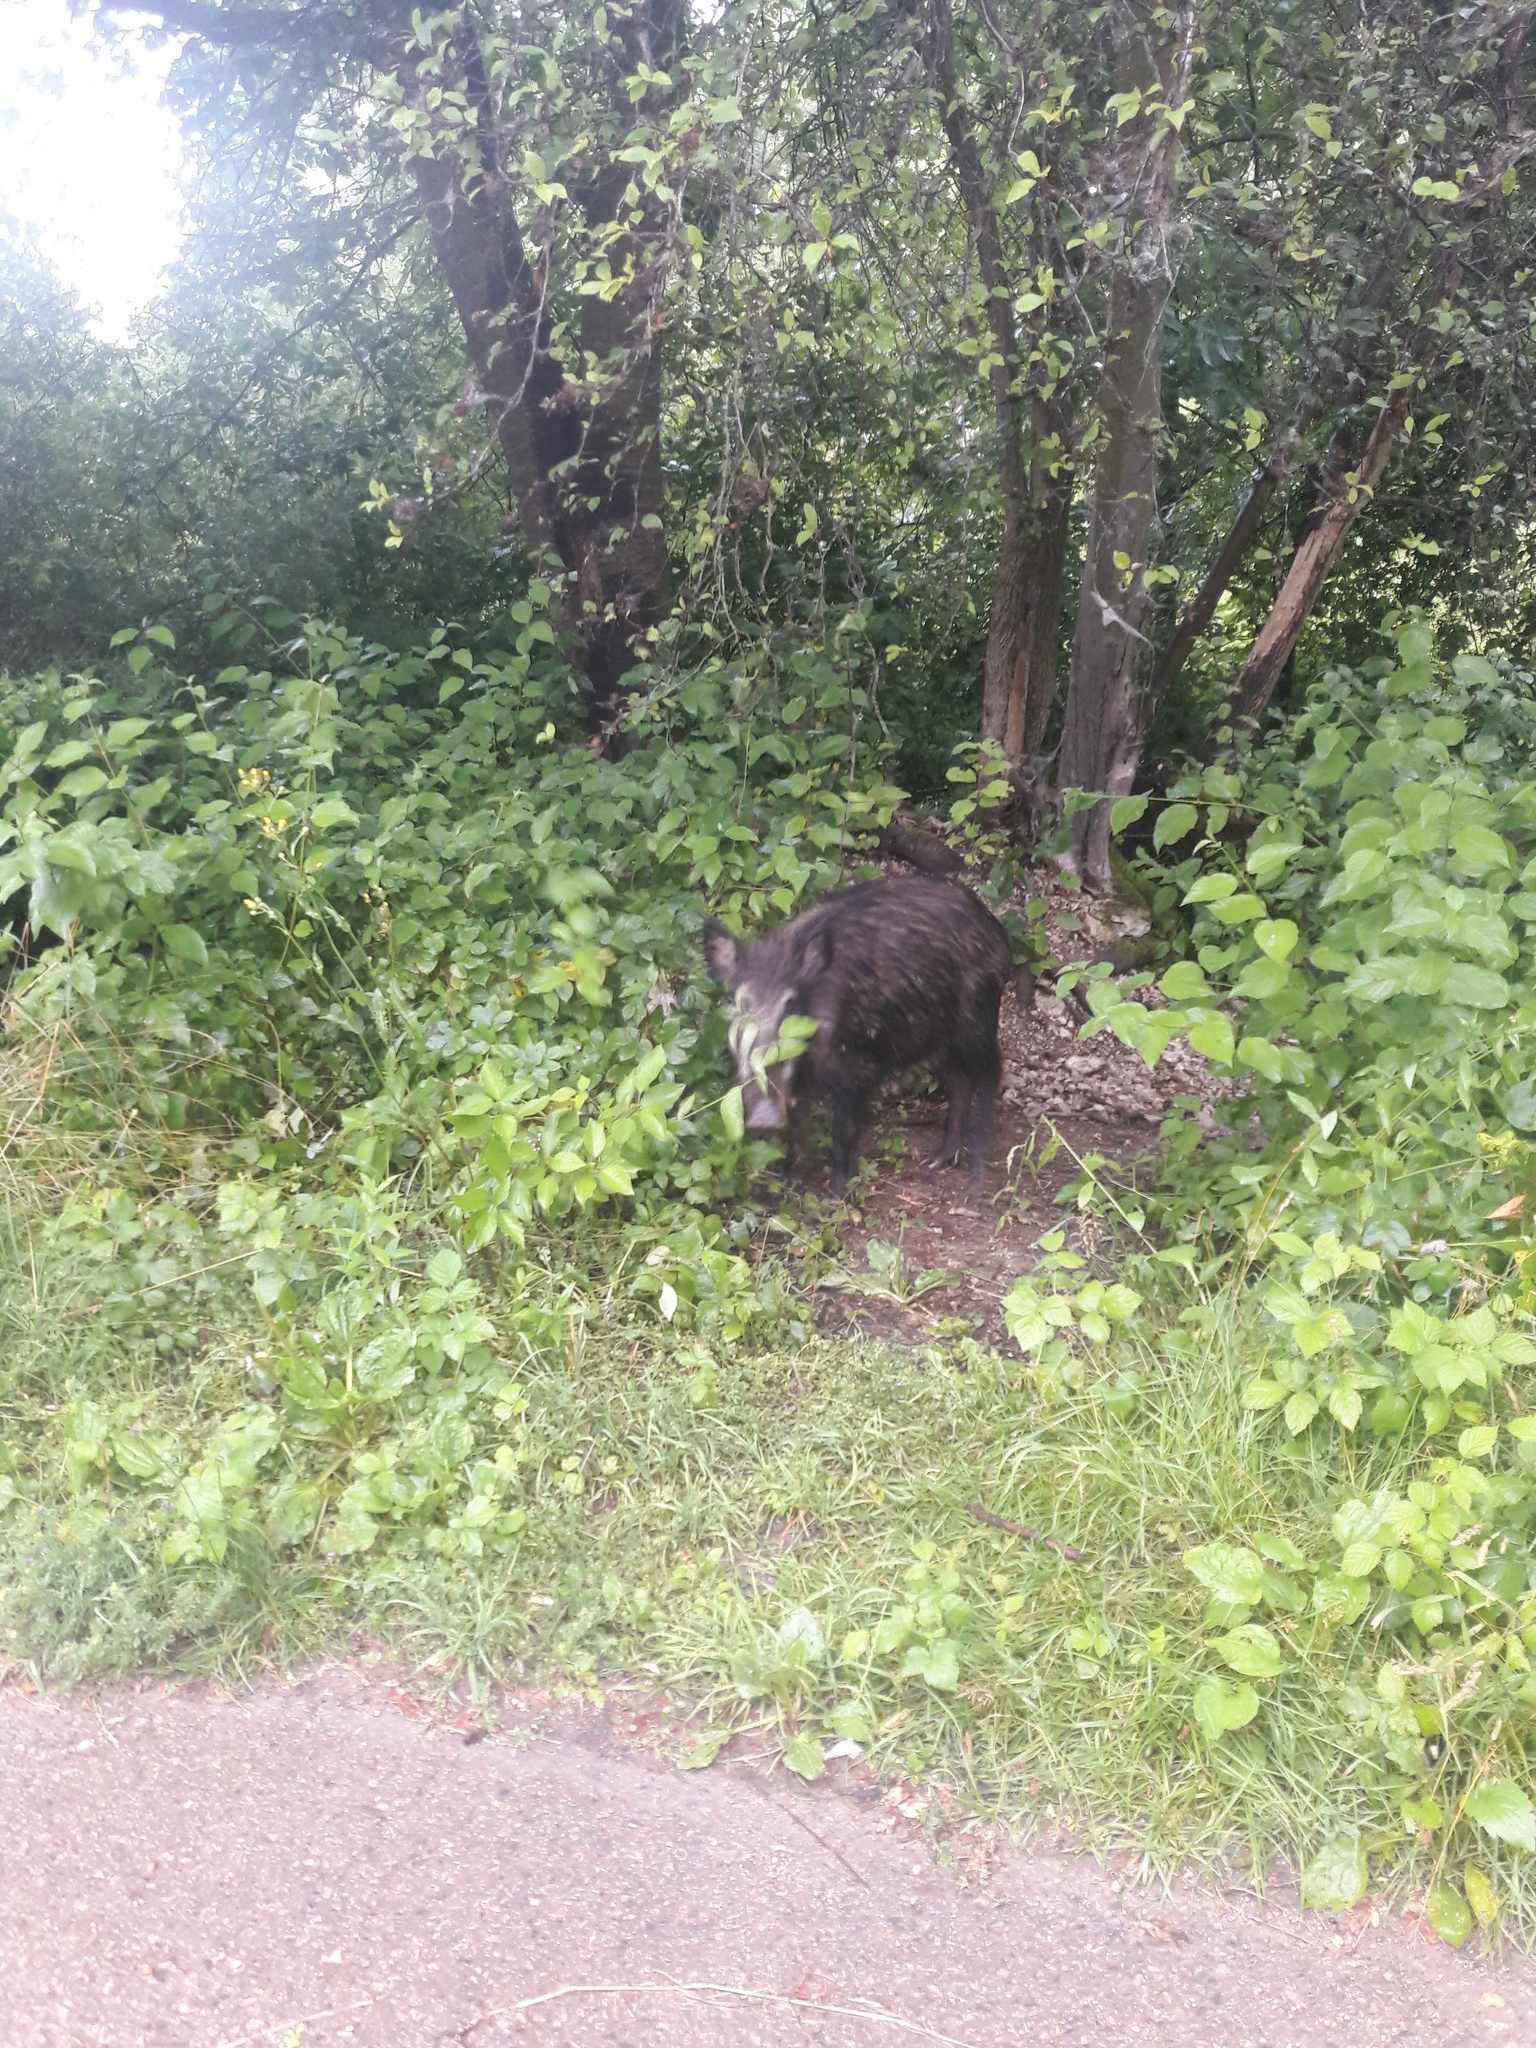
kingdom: Animalia
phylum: Chordata
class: Mammalia
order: Artiodactyla
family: Suidae
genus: Sus
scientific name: Sus scrofa
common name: Wild boar
